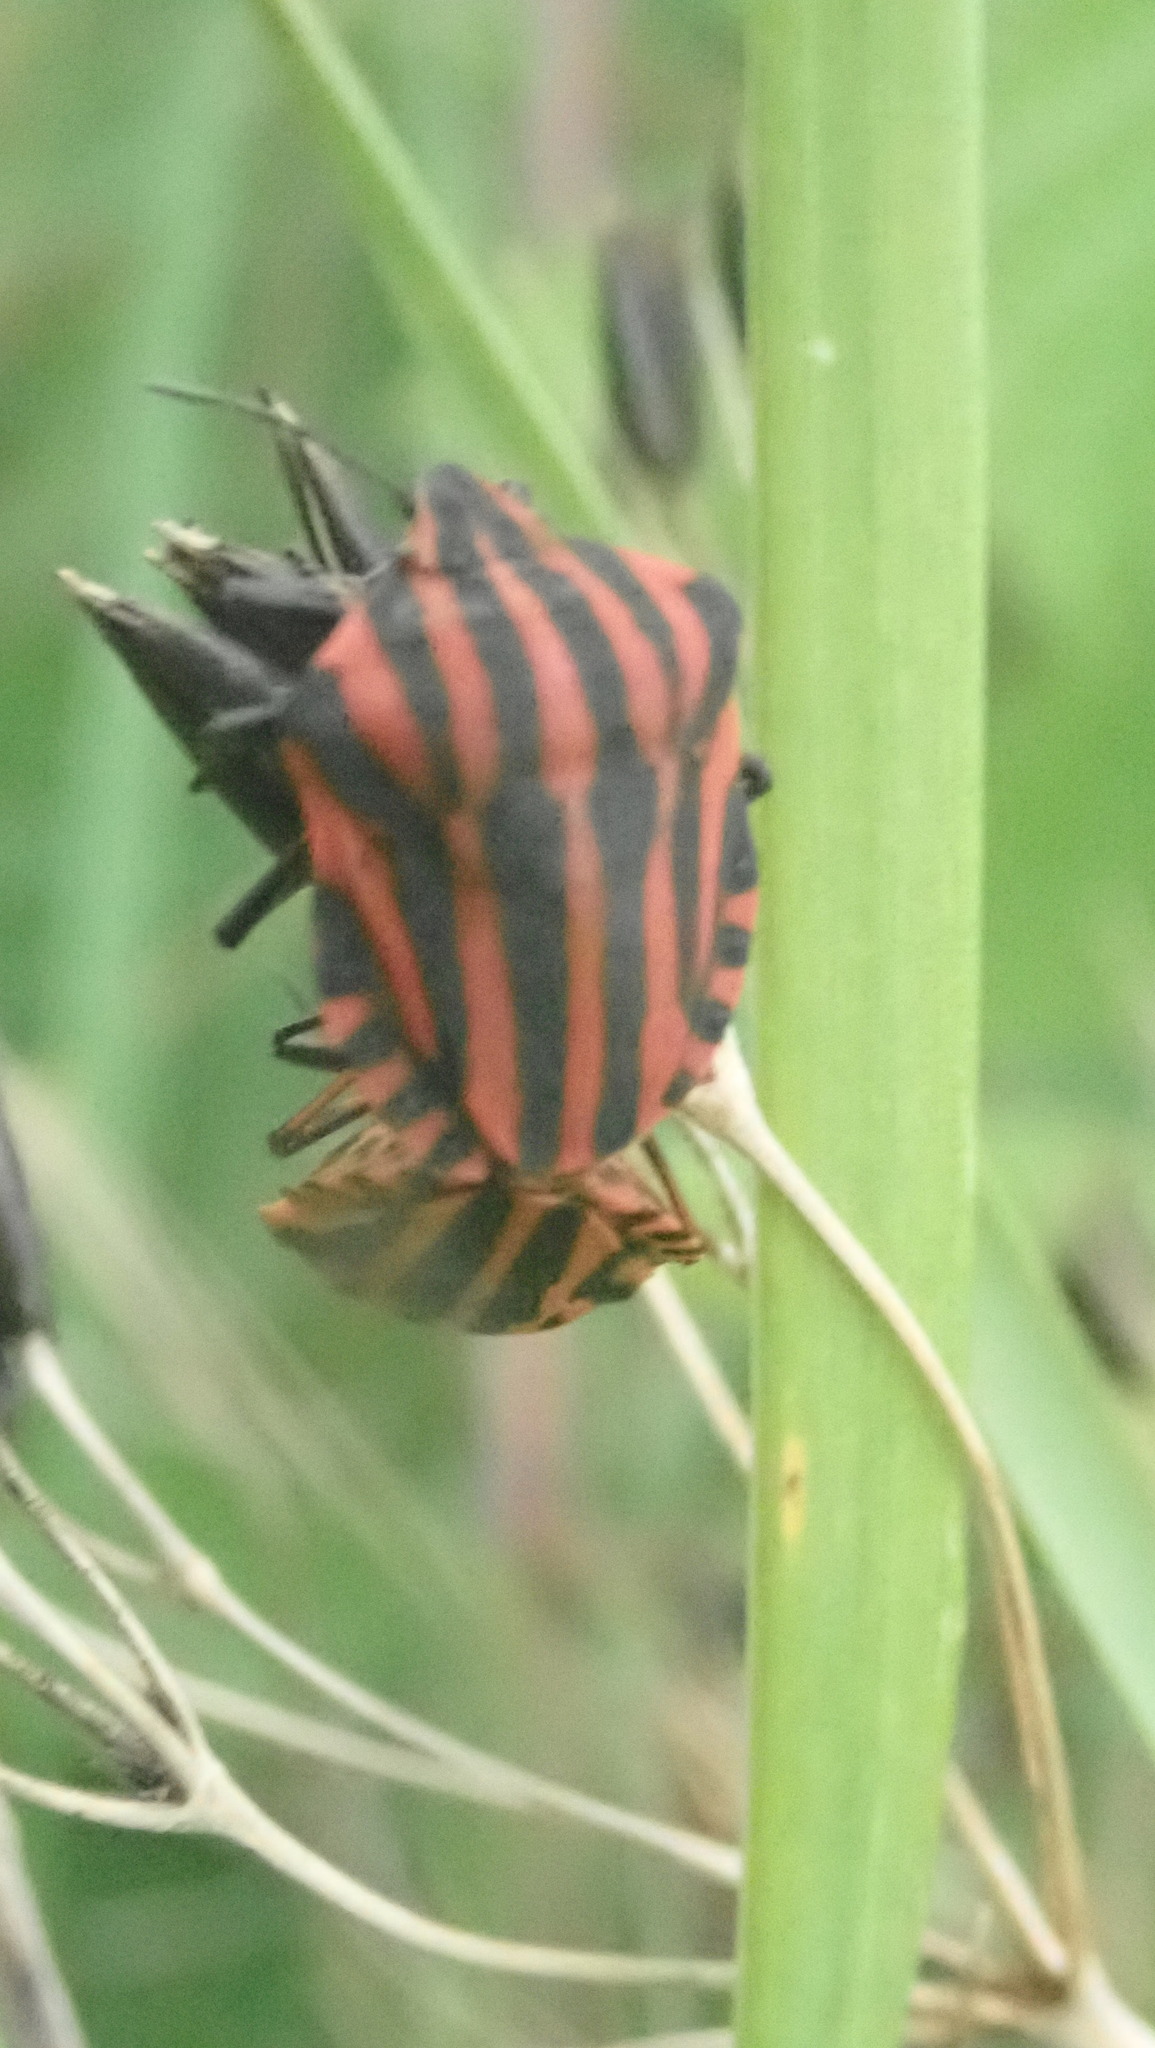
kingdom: Animalia
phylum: Arthropoda
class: Insecta
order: Hemiptera
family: Pentatomidae
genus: Graphosoma
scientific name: Graphosoma italicum
